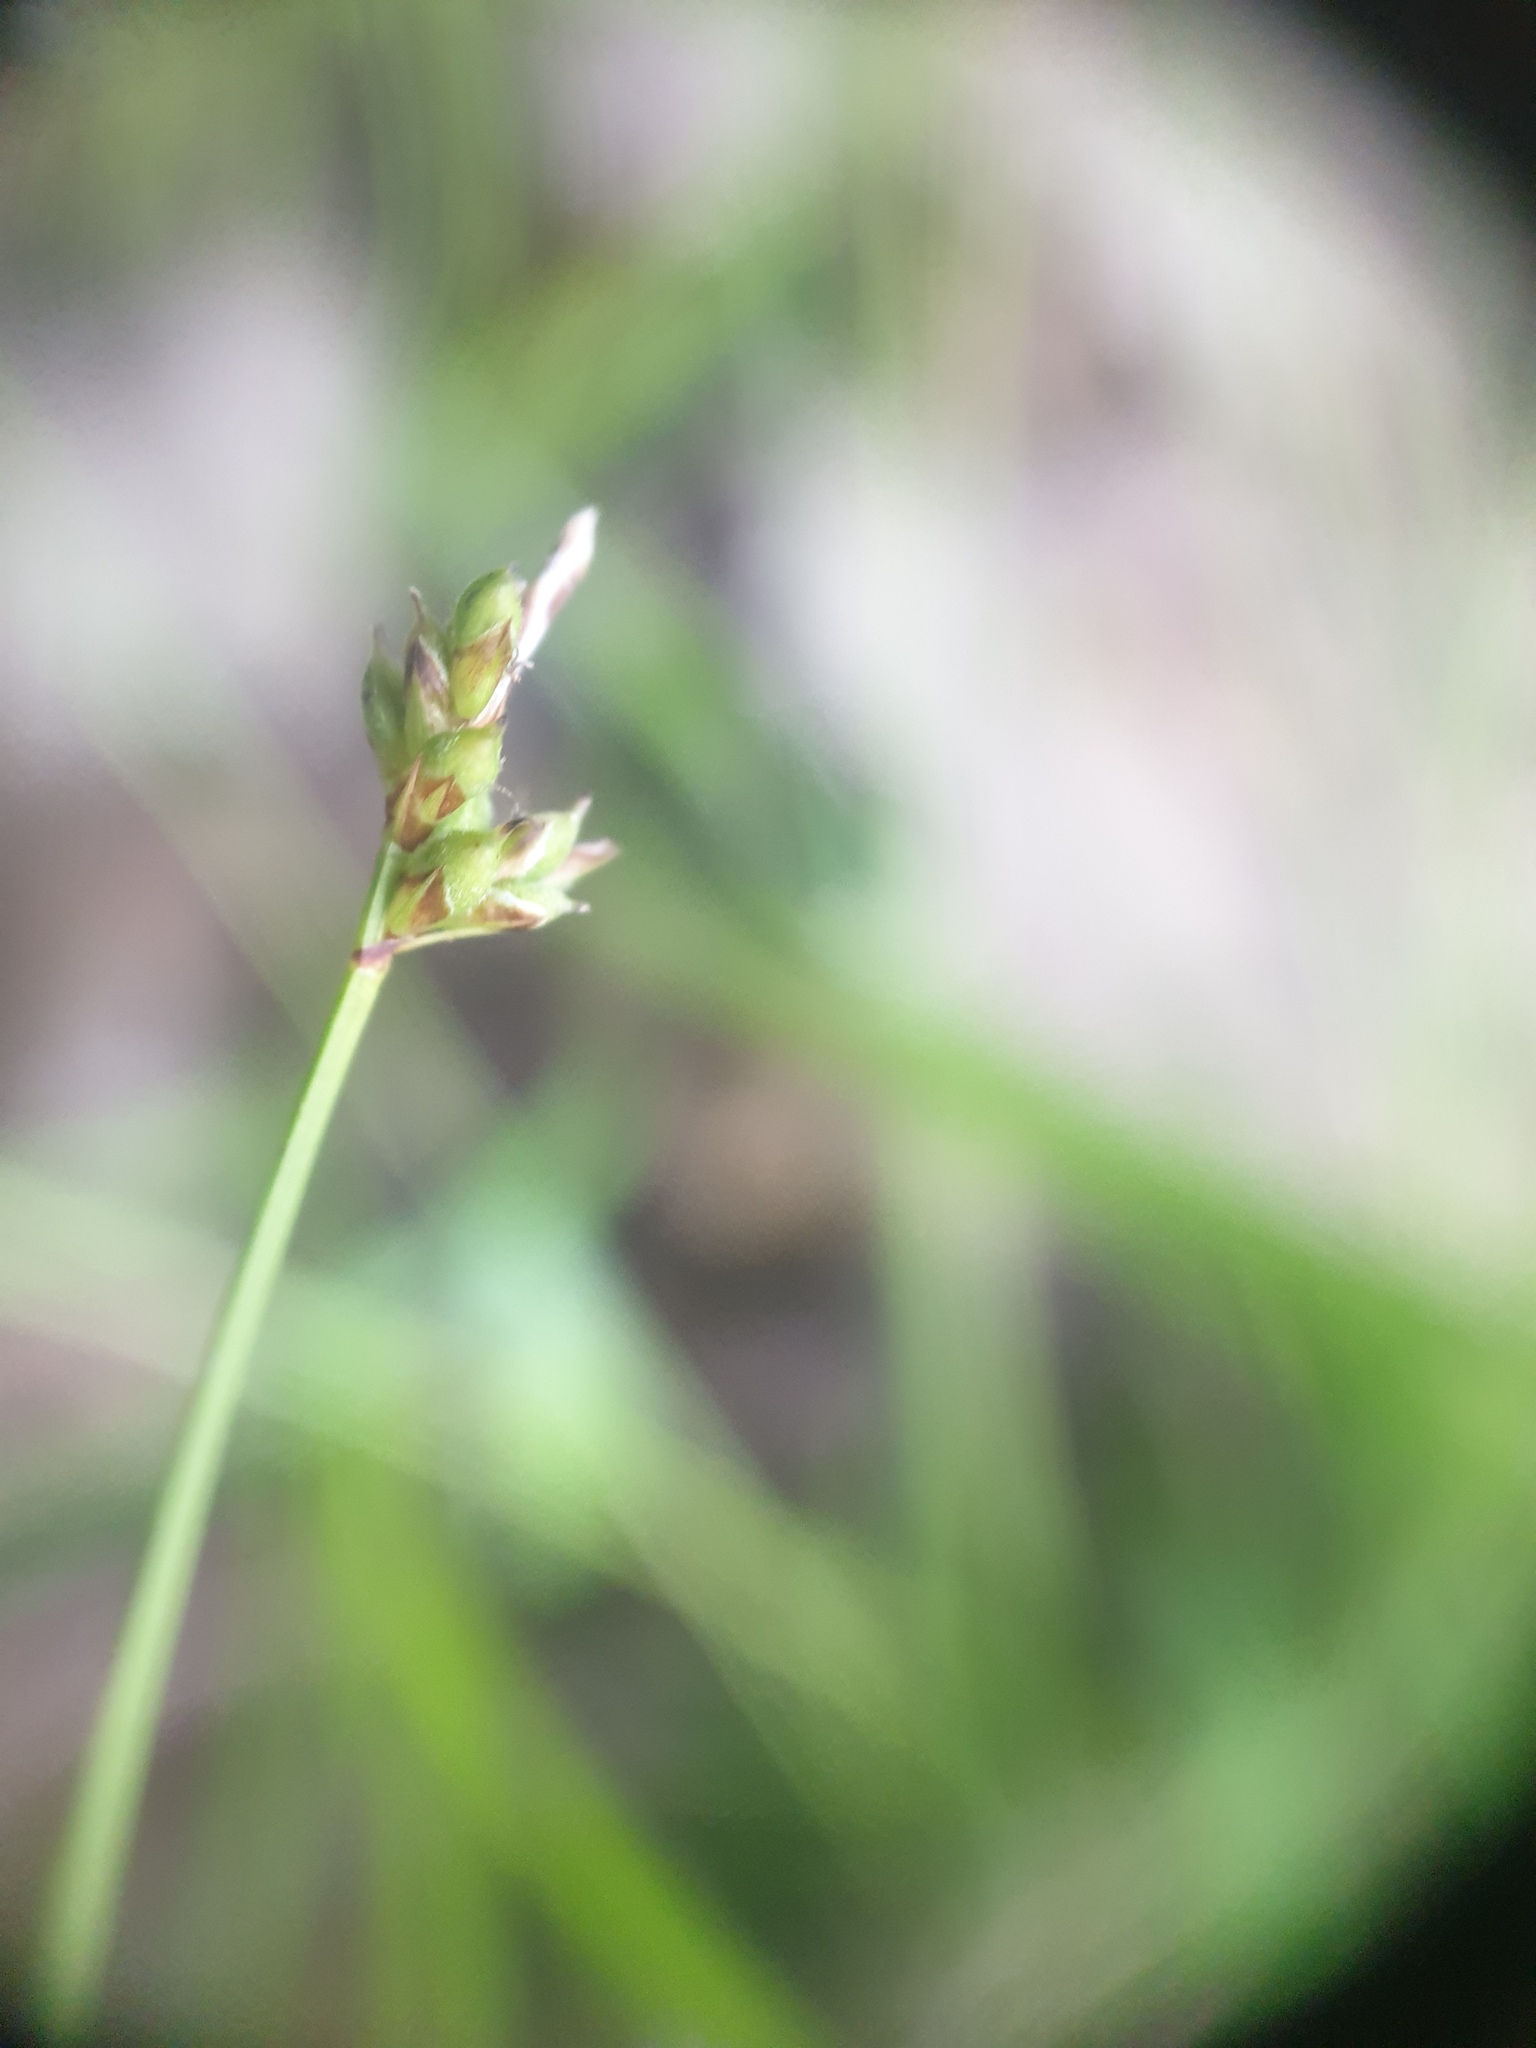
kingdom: Plantae
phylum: Tracheophyta
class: Liliopsida
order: Poales
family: Cyperaceae
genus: Carex
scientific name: Carex peckii
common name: Peck's oak sedge
